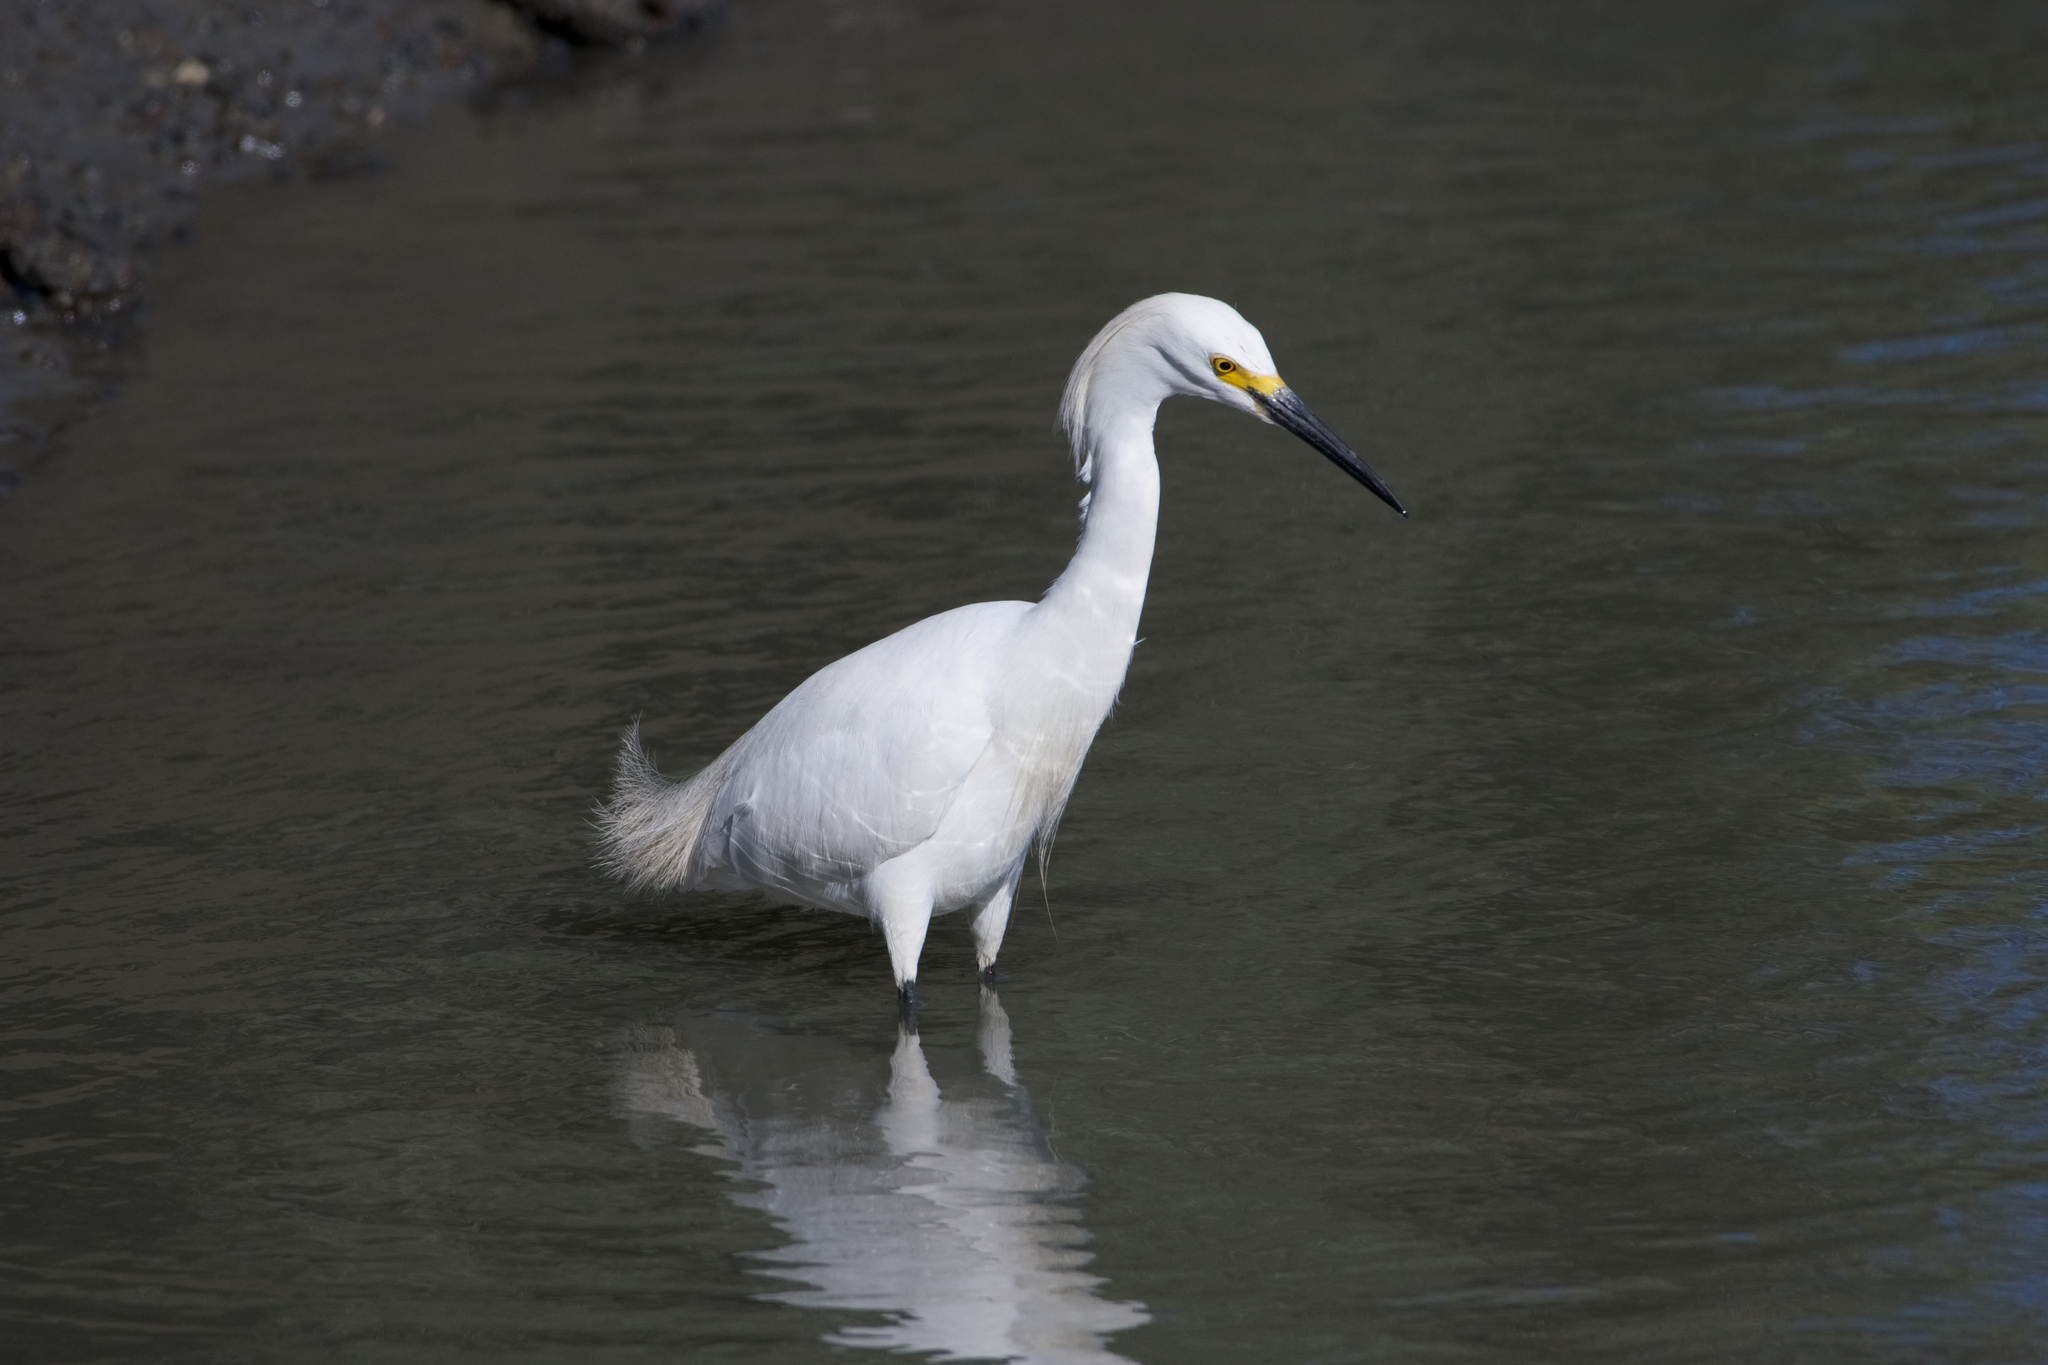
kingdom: Animalia
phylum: Chordata
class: Aves
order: Pelecaniformes
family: Ardeidae
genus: Egretta
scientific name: Egretta thula
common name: Snowy egret
